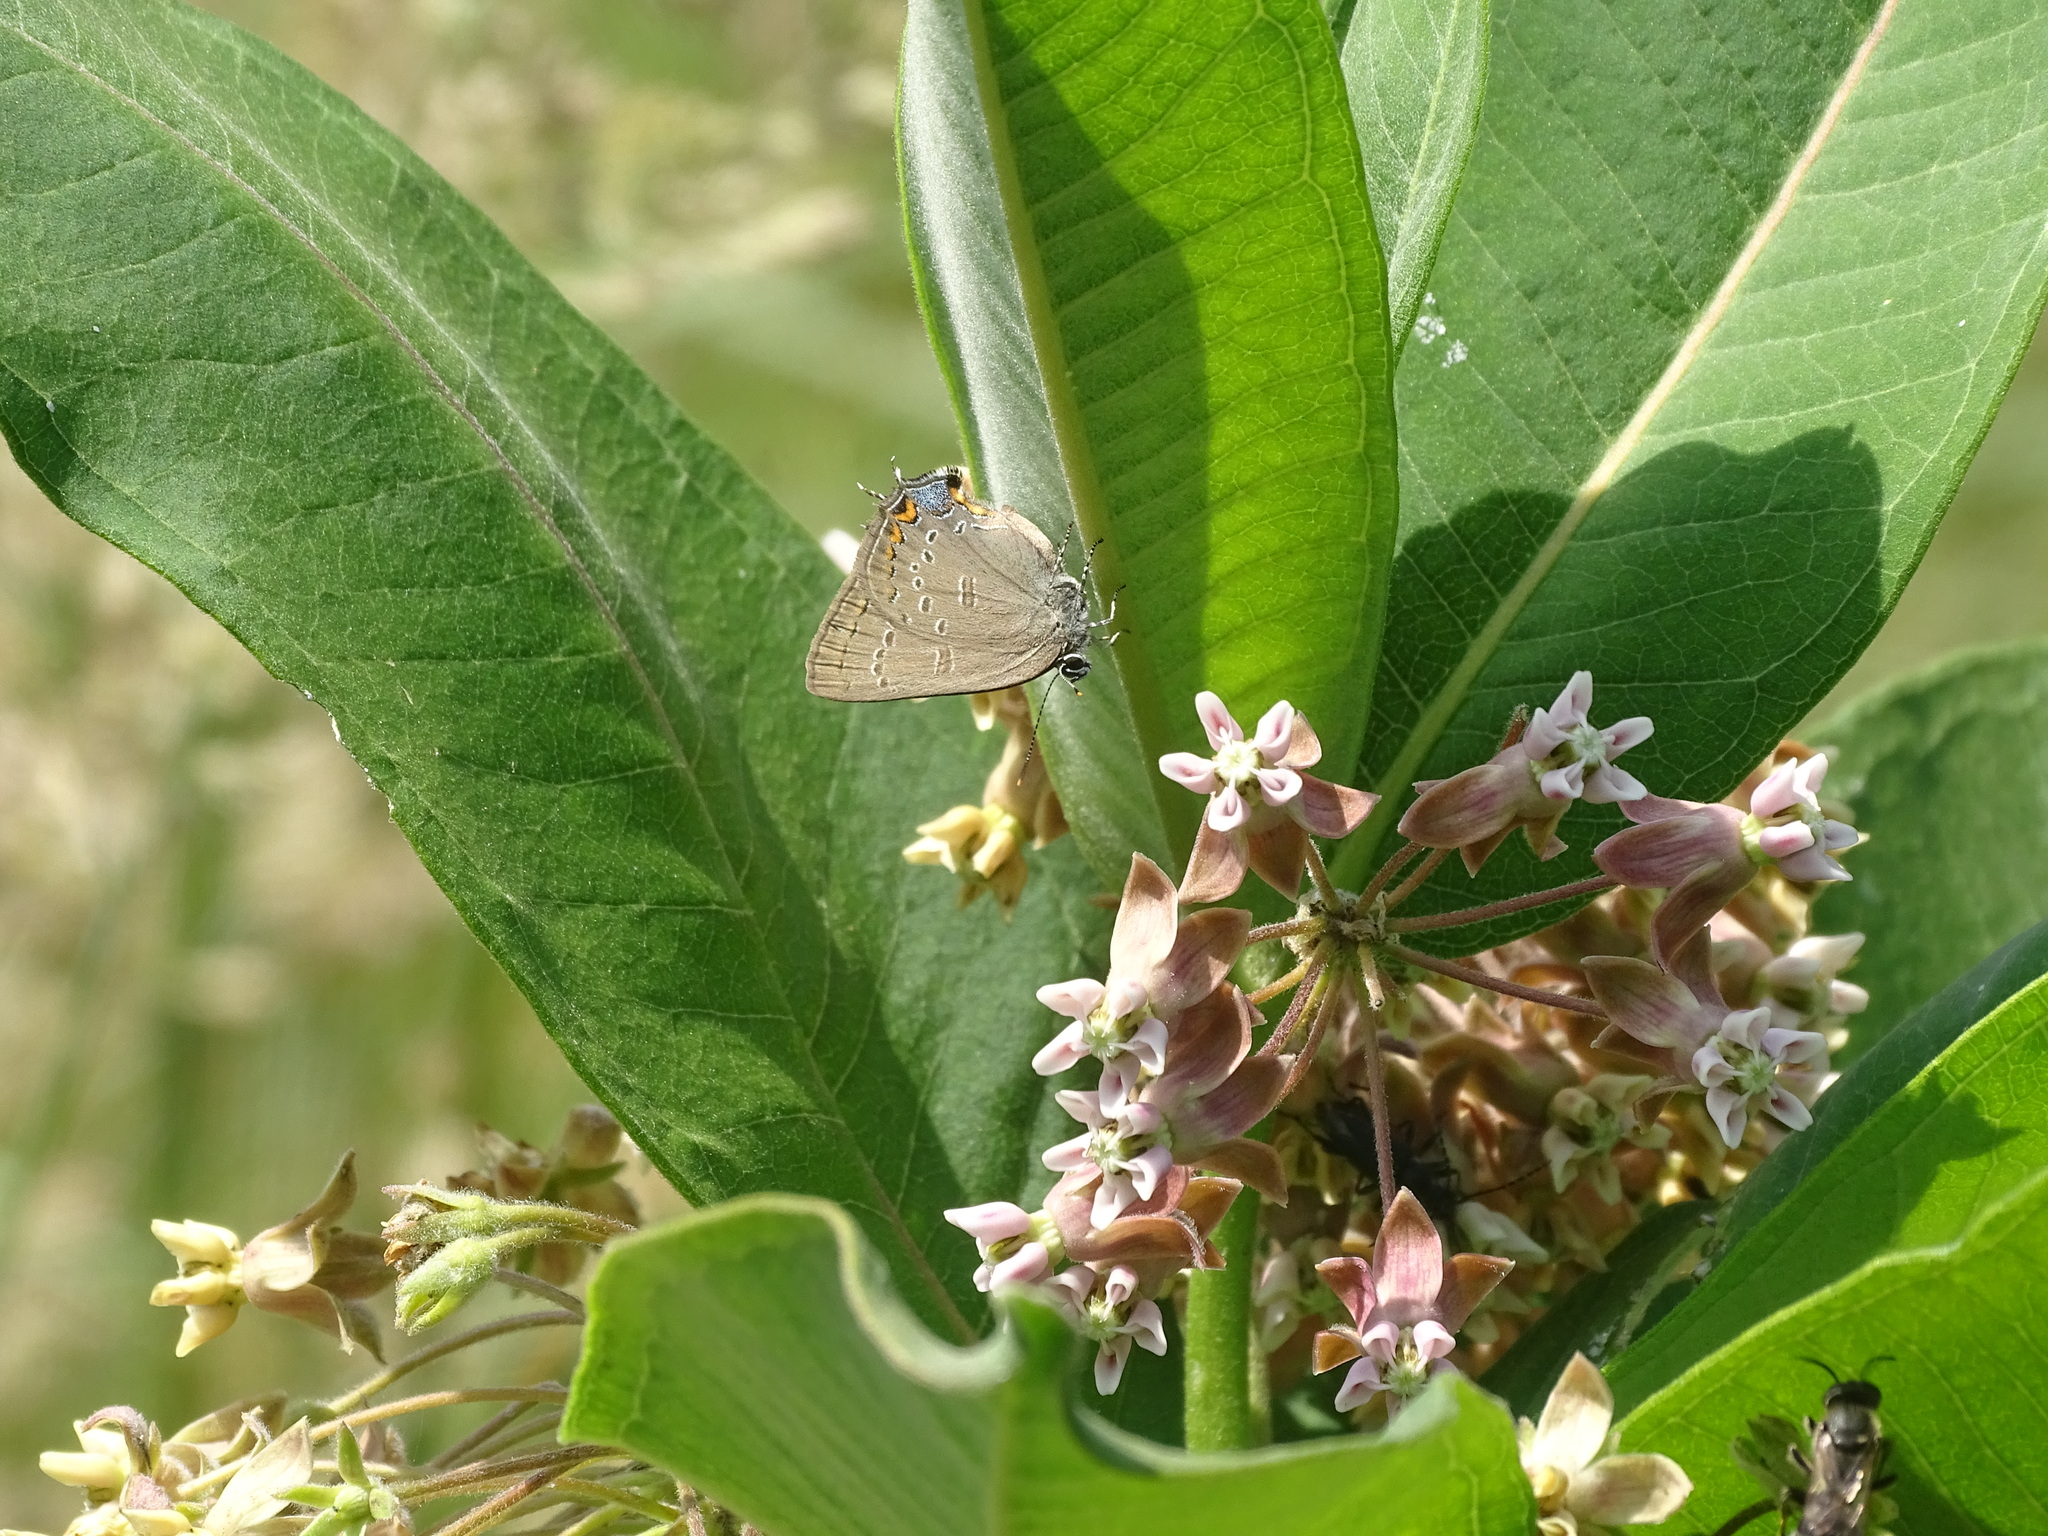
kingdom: Animalia
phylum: Arthropoda
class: Insecta
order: Lepidoptera
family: Lycaenidae
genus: Satyrium
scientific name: Satyrium edwardsii
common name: Edwards' hairstreak
